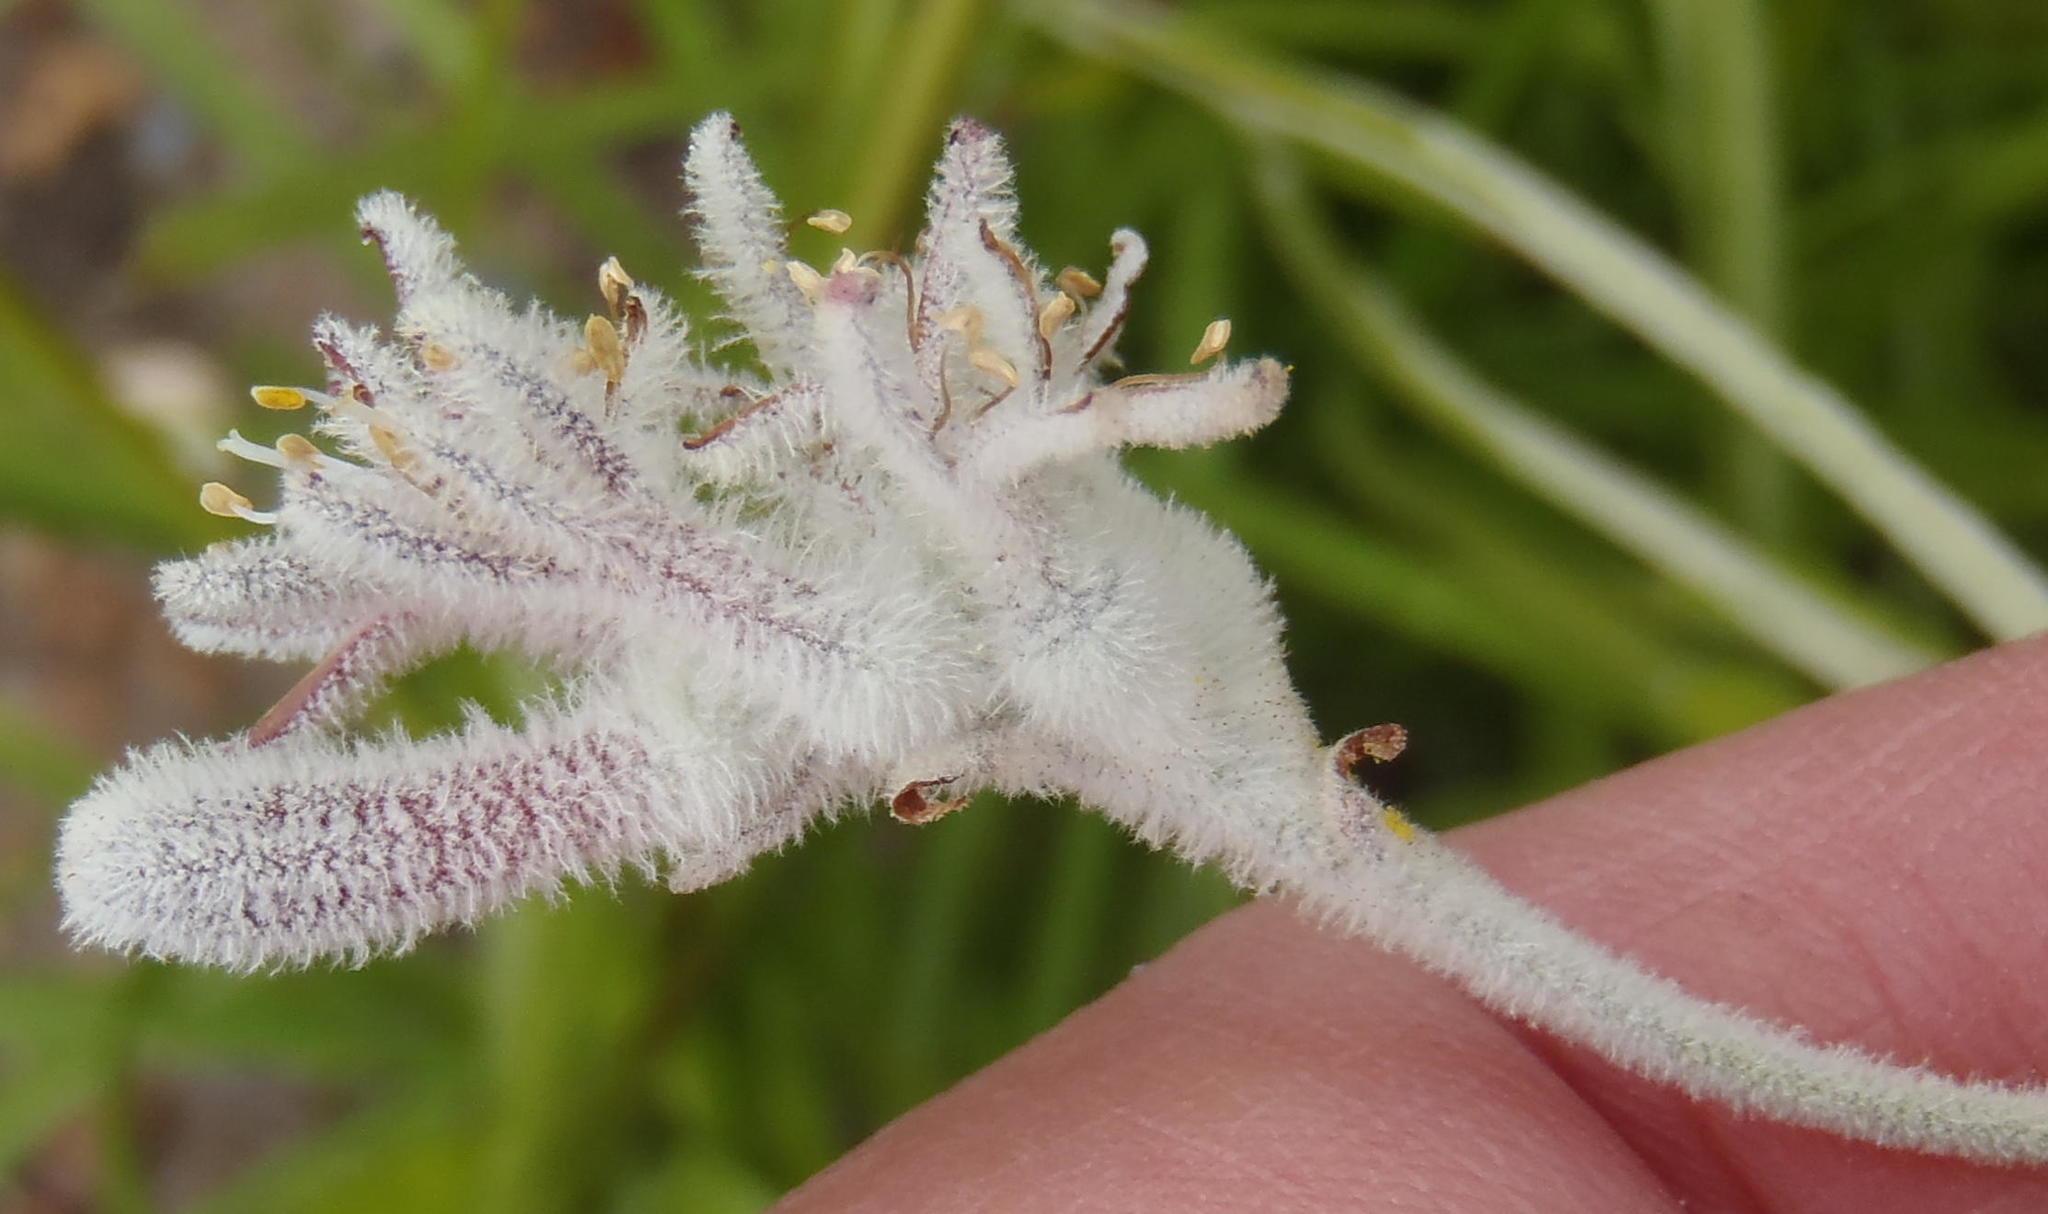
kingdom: Plantae
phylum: Tracheophyta
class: Liliopsida
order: Asparagales
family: Lanariaceae
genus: Lanaria
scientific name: Lanaria lanata
